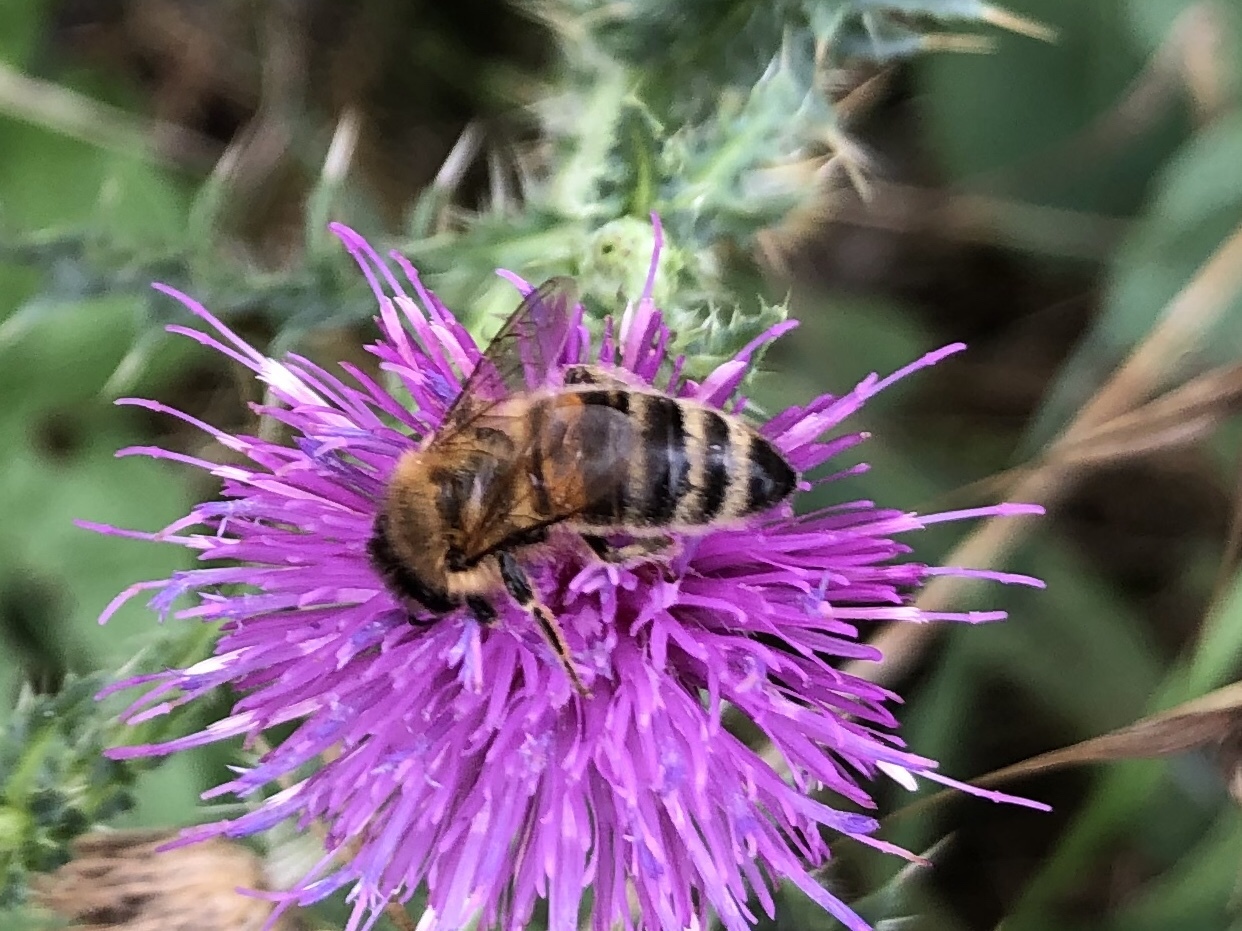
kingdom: Animalia
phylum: Arthropoda
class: Insecta
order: Hymenoptera
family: Apidae
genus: Apis
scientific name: Apis mellifera
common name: Honey bee
